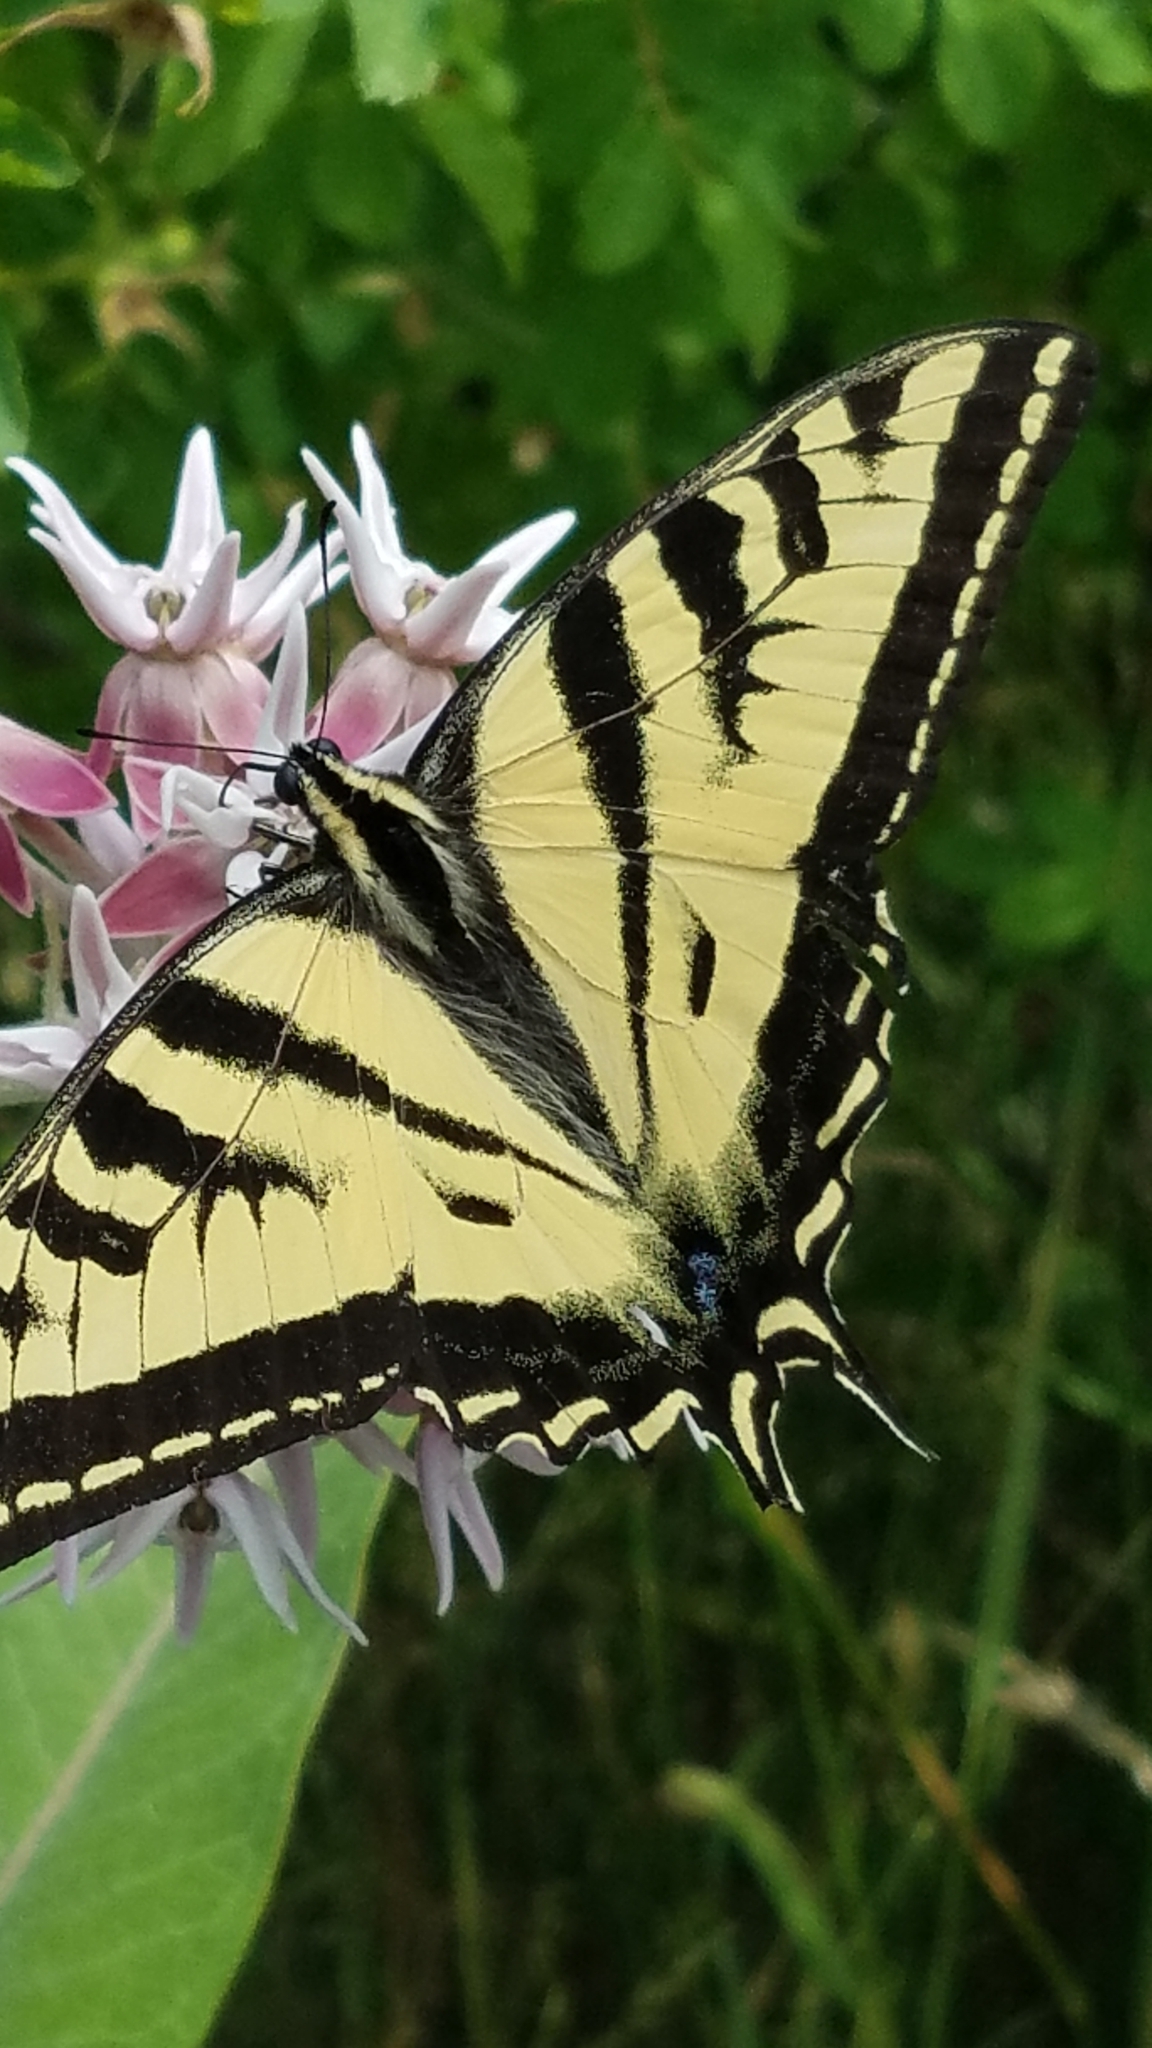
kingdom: Animalia
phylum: Arthropoda
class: Insecta
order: Lepidoptera
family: Papilionidae
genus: Papilio
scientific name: Papilio rutulus
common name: Western tiger swallowtail
